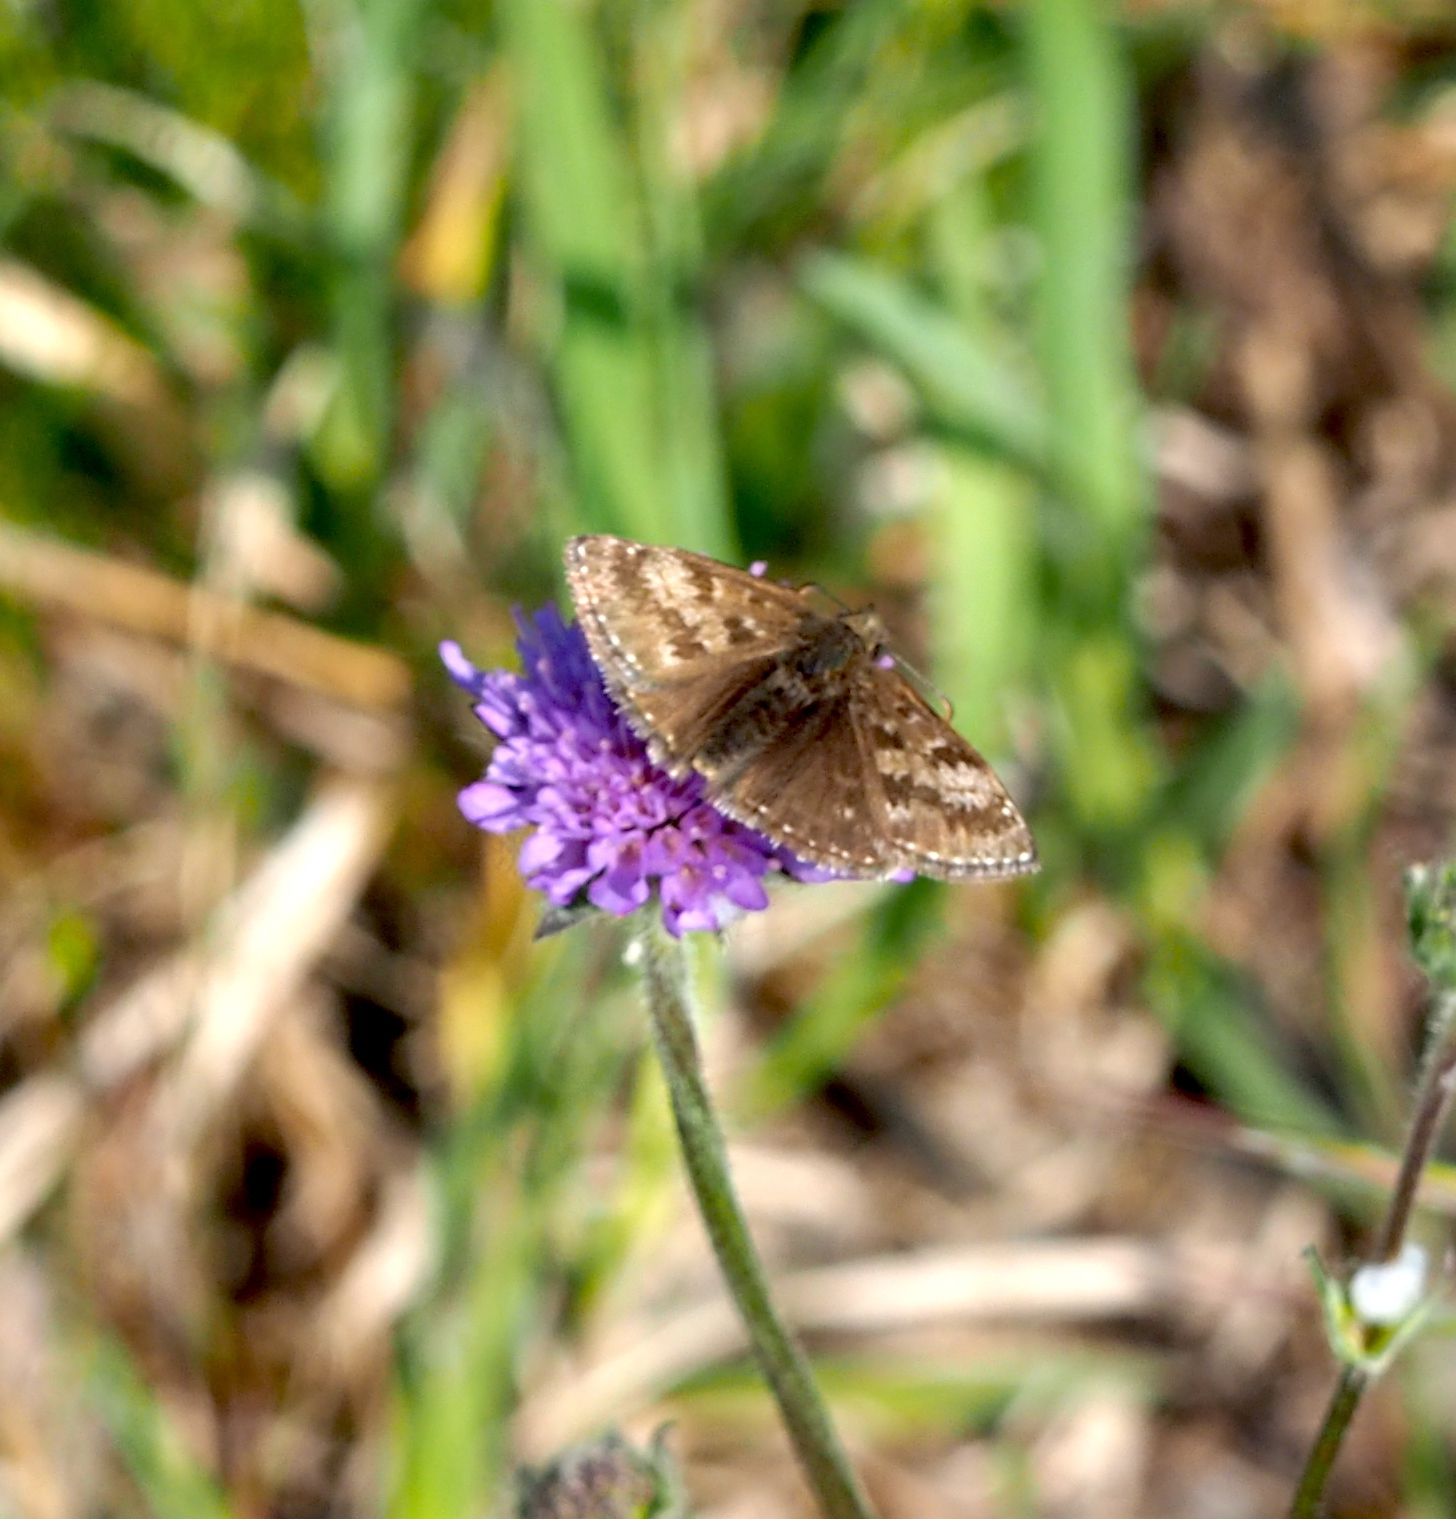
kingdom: Animalia
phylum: Arthropoda
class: Insecta
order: Lepidoptera
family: Hesperiidae
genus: Erynnis
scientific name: Erynnis tages
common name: Dingy skipper
